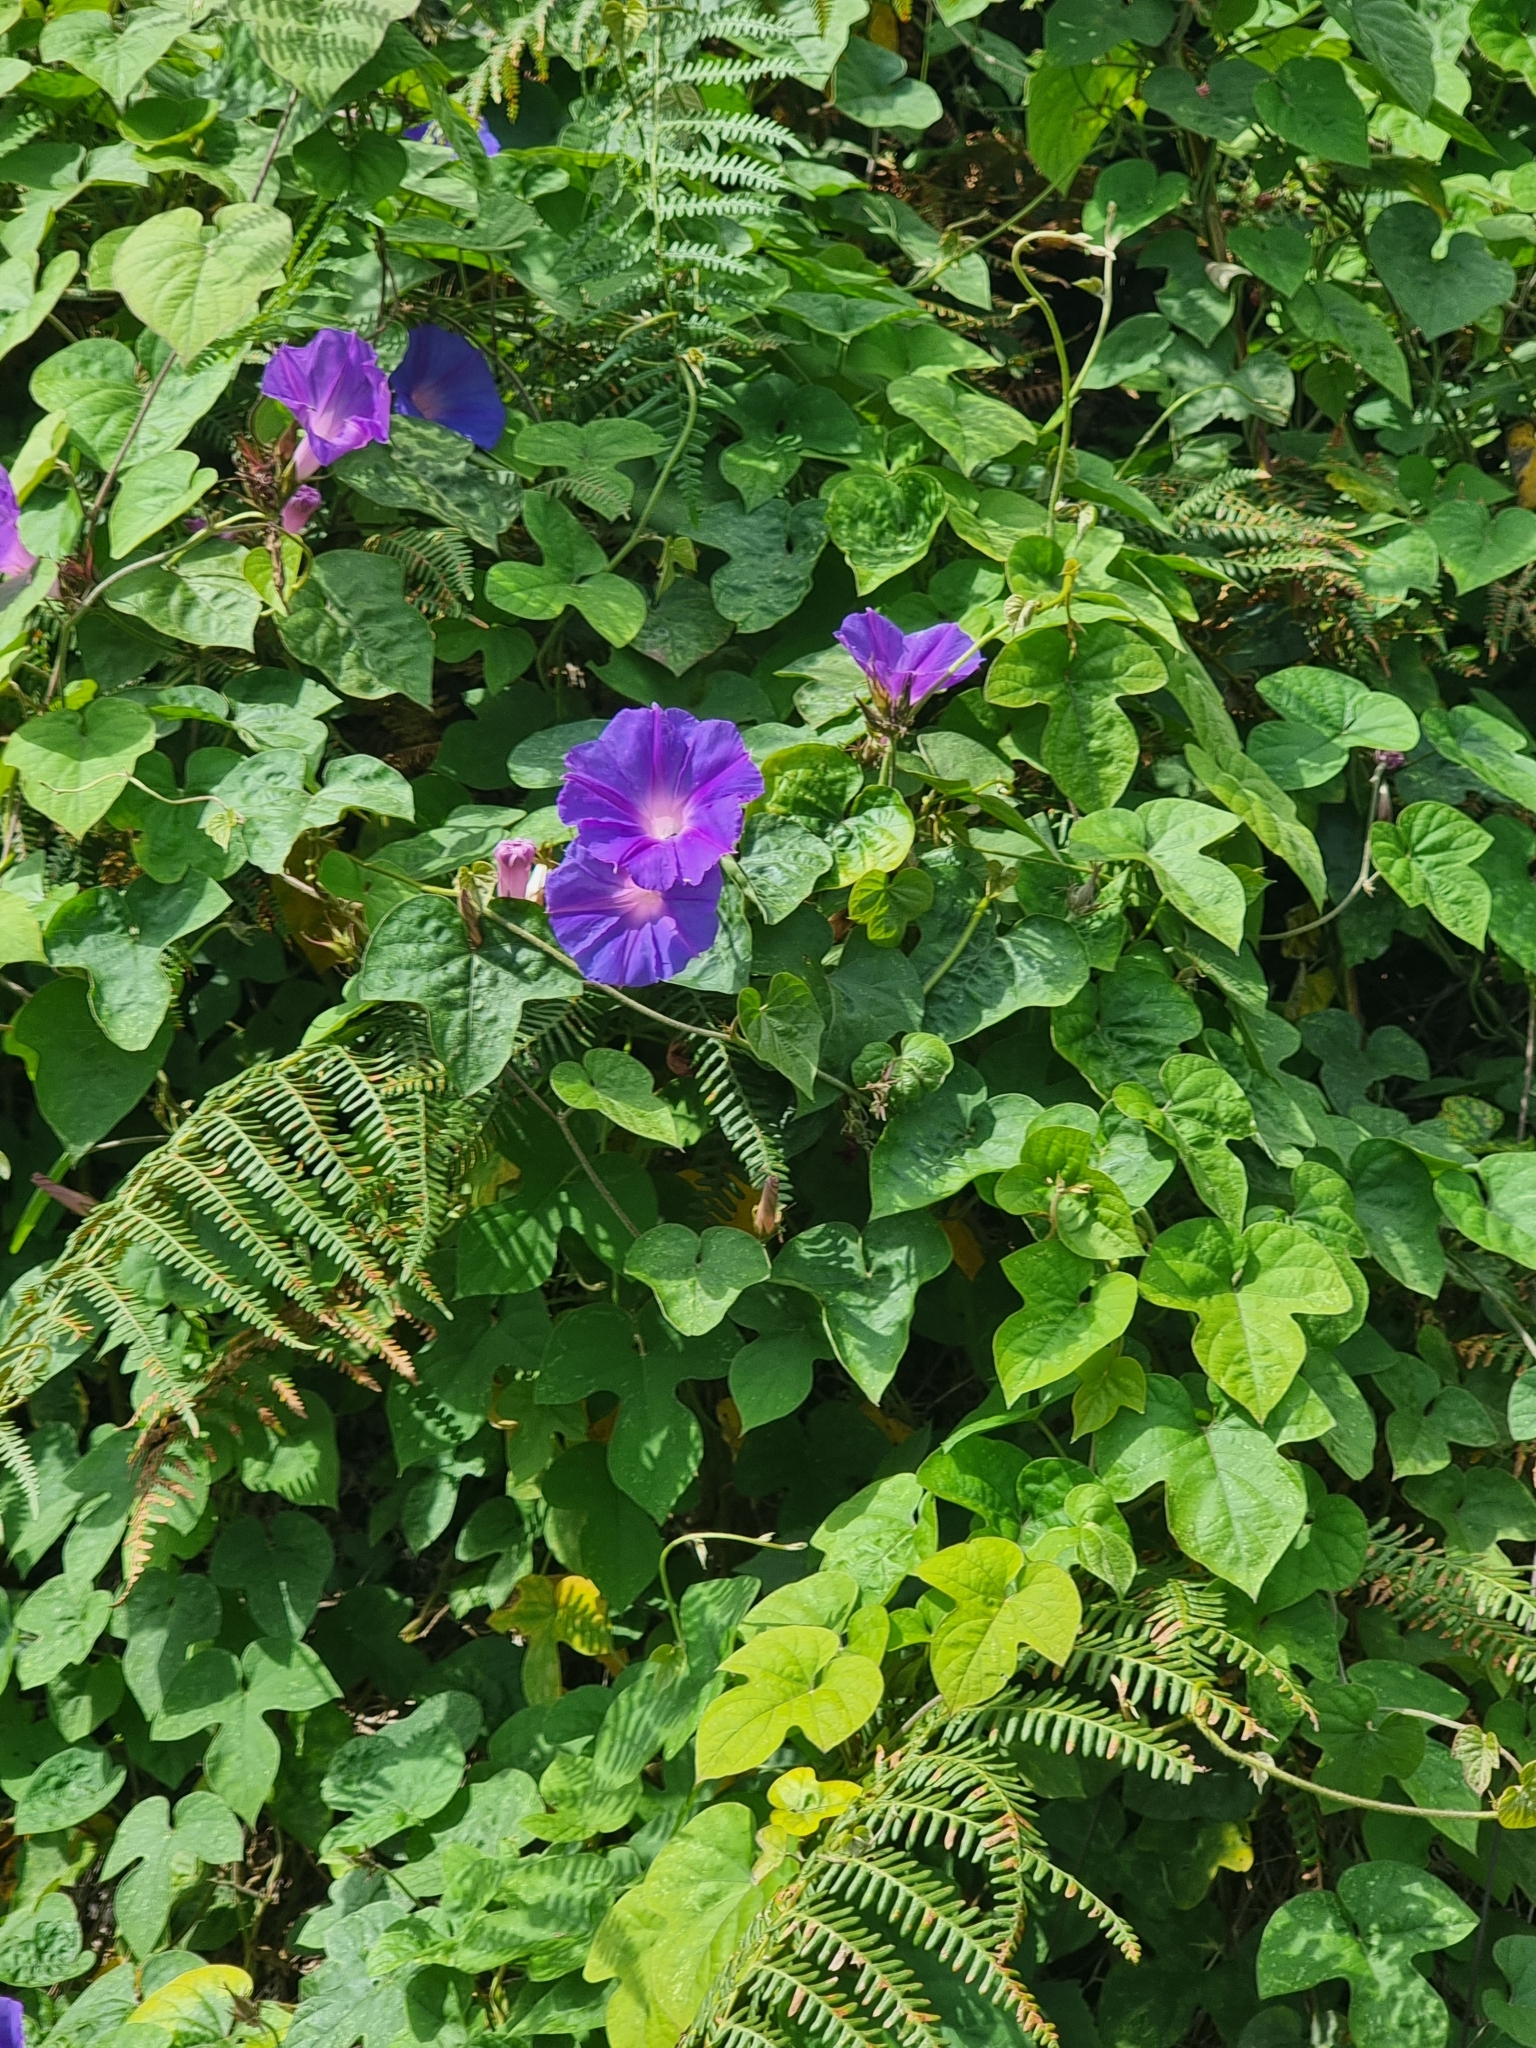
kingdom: Plantae
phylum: Tracheophyta
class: Magnoliopsida
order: Solanales
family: Convolvulaceae
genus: Ipomoea
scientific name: Ipomoea indica
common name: Blue dawnflower
